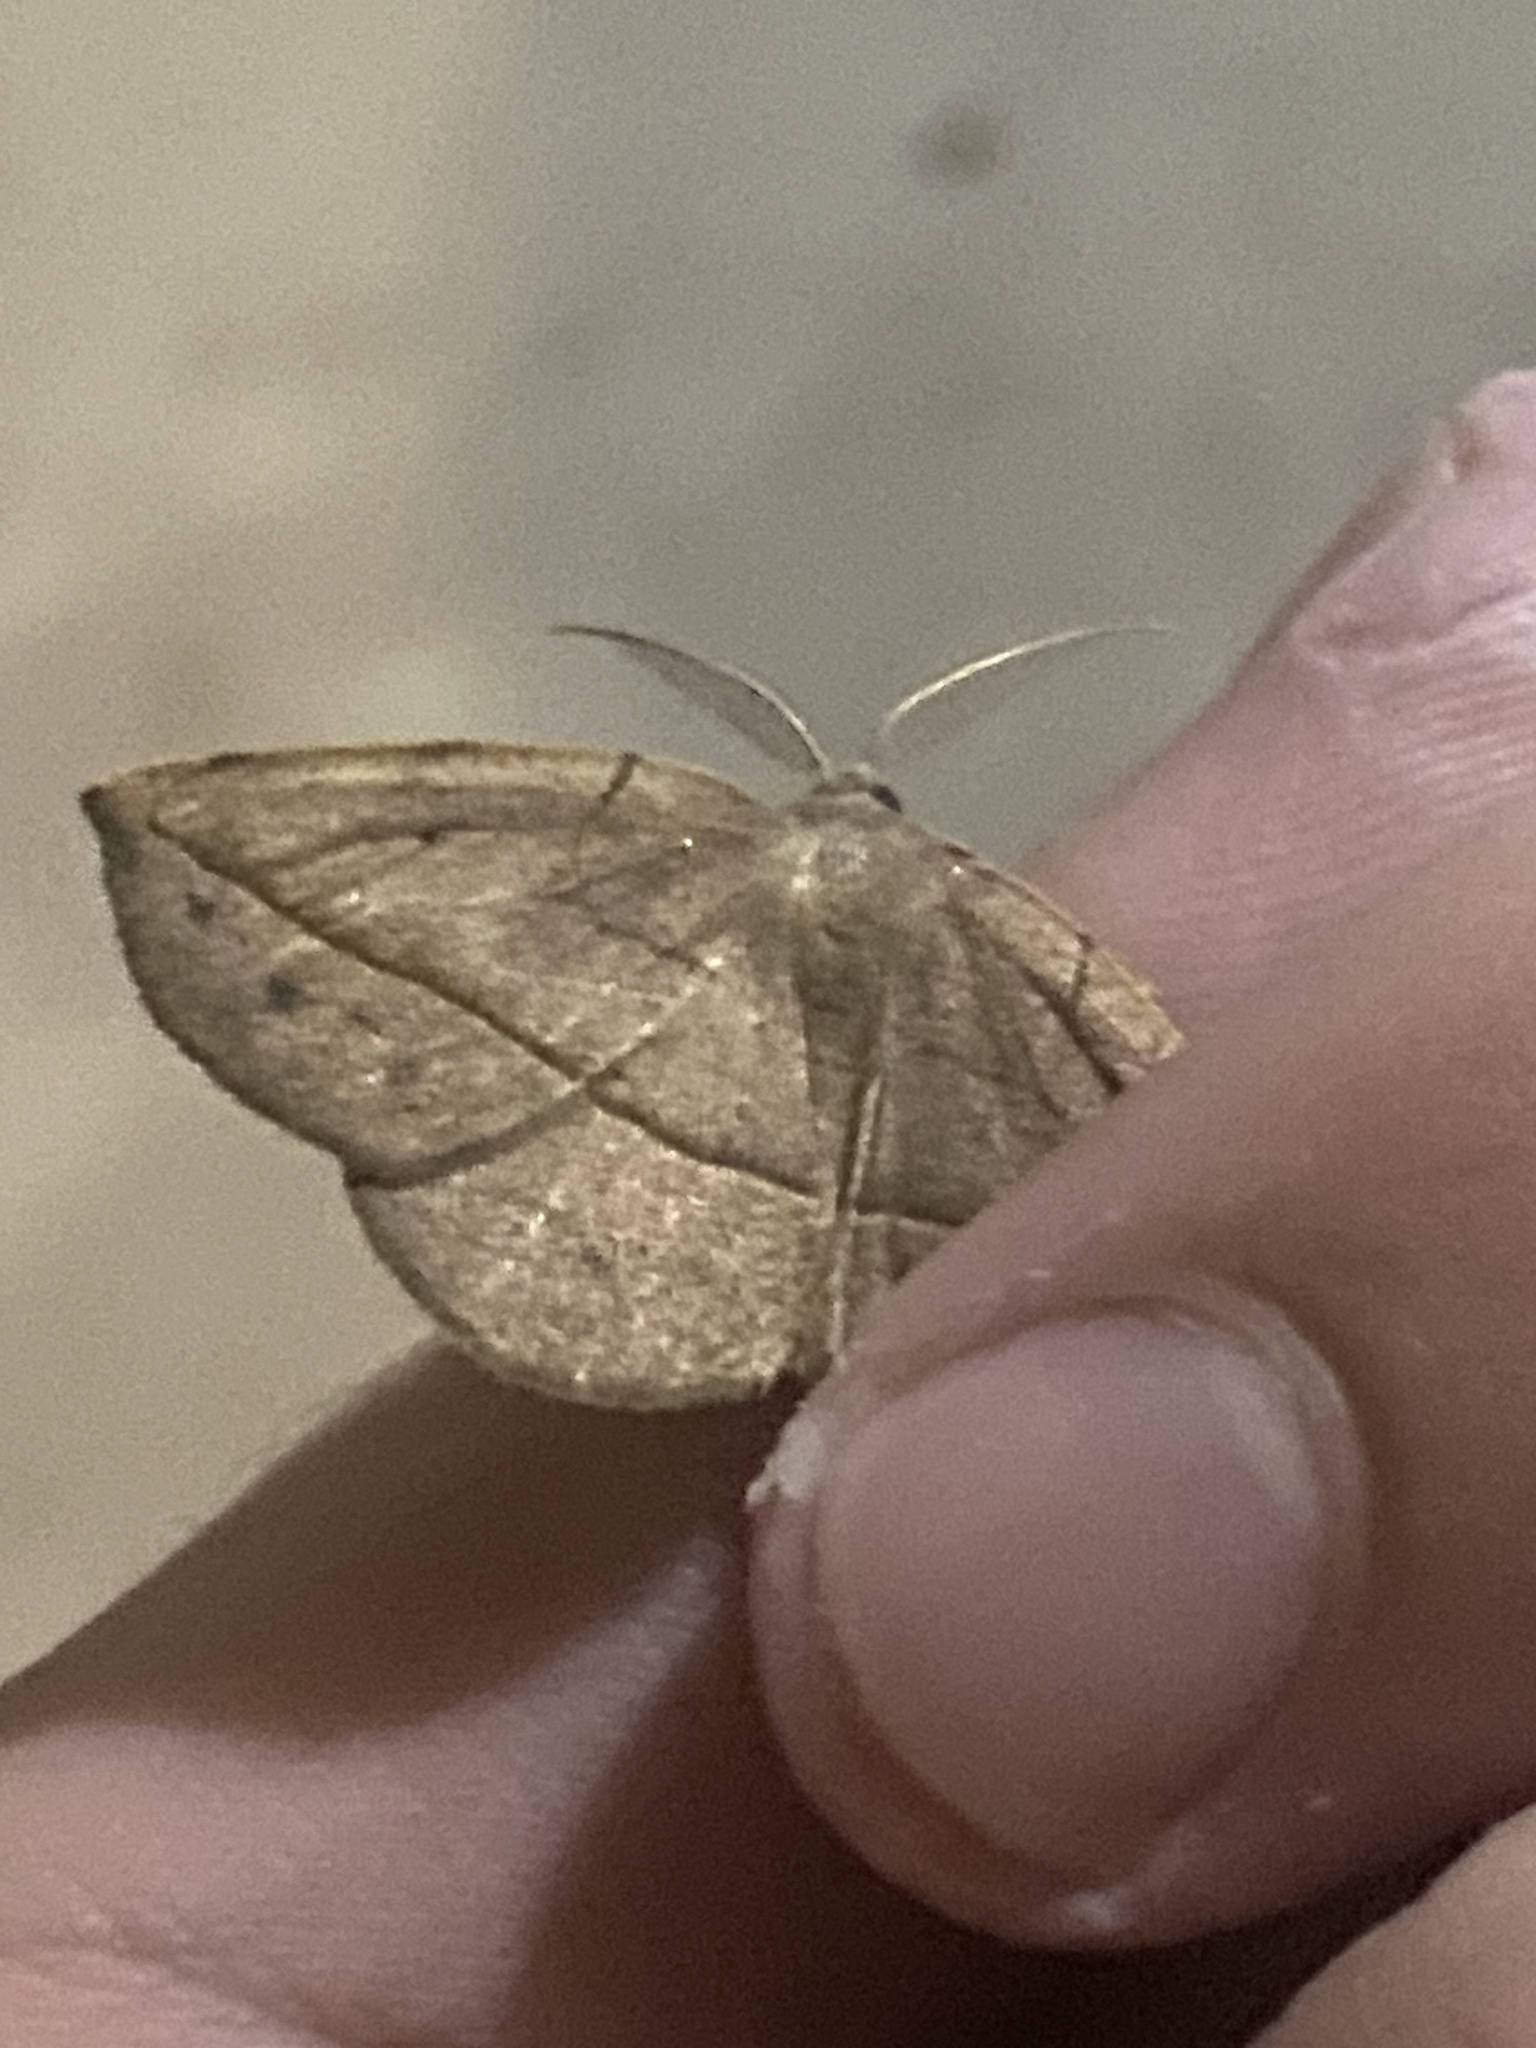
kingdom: Animalia
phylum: Arthropoda
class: Insecta
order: Lepidoptera
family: Geometridae
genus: Eusarca
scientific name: Eusarca fundaria
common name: Dark-edged eusarca moth
